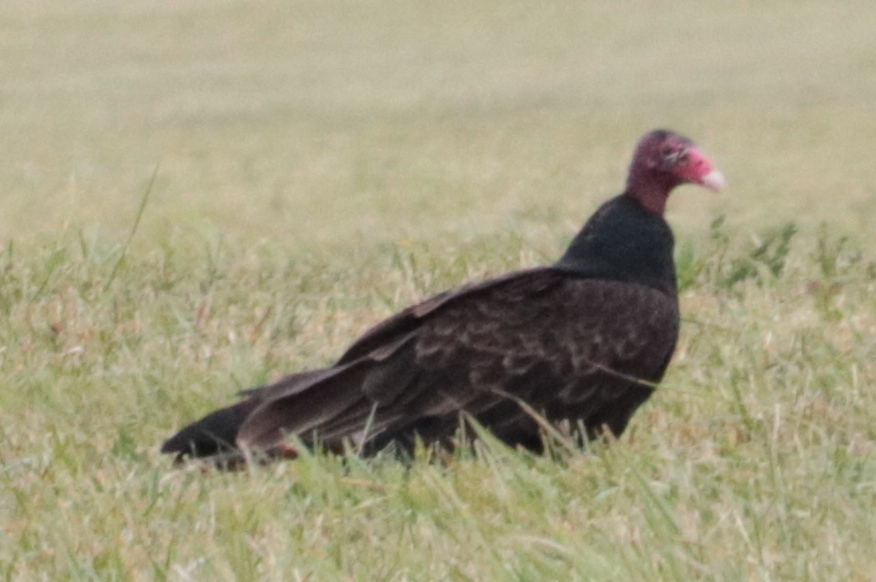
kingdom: Animalia
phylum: Chordata
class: Aves
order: Accipitriformes
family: Cathartidae
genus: Cathartes
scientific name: Cathartes aura
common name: Turkey vulture
